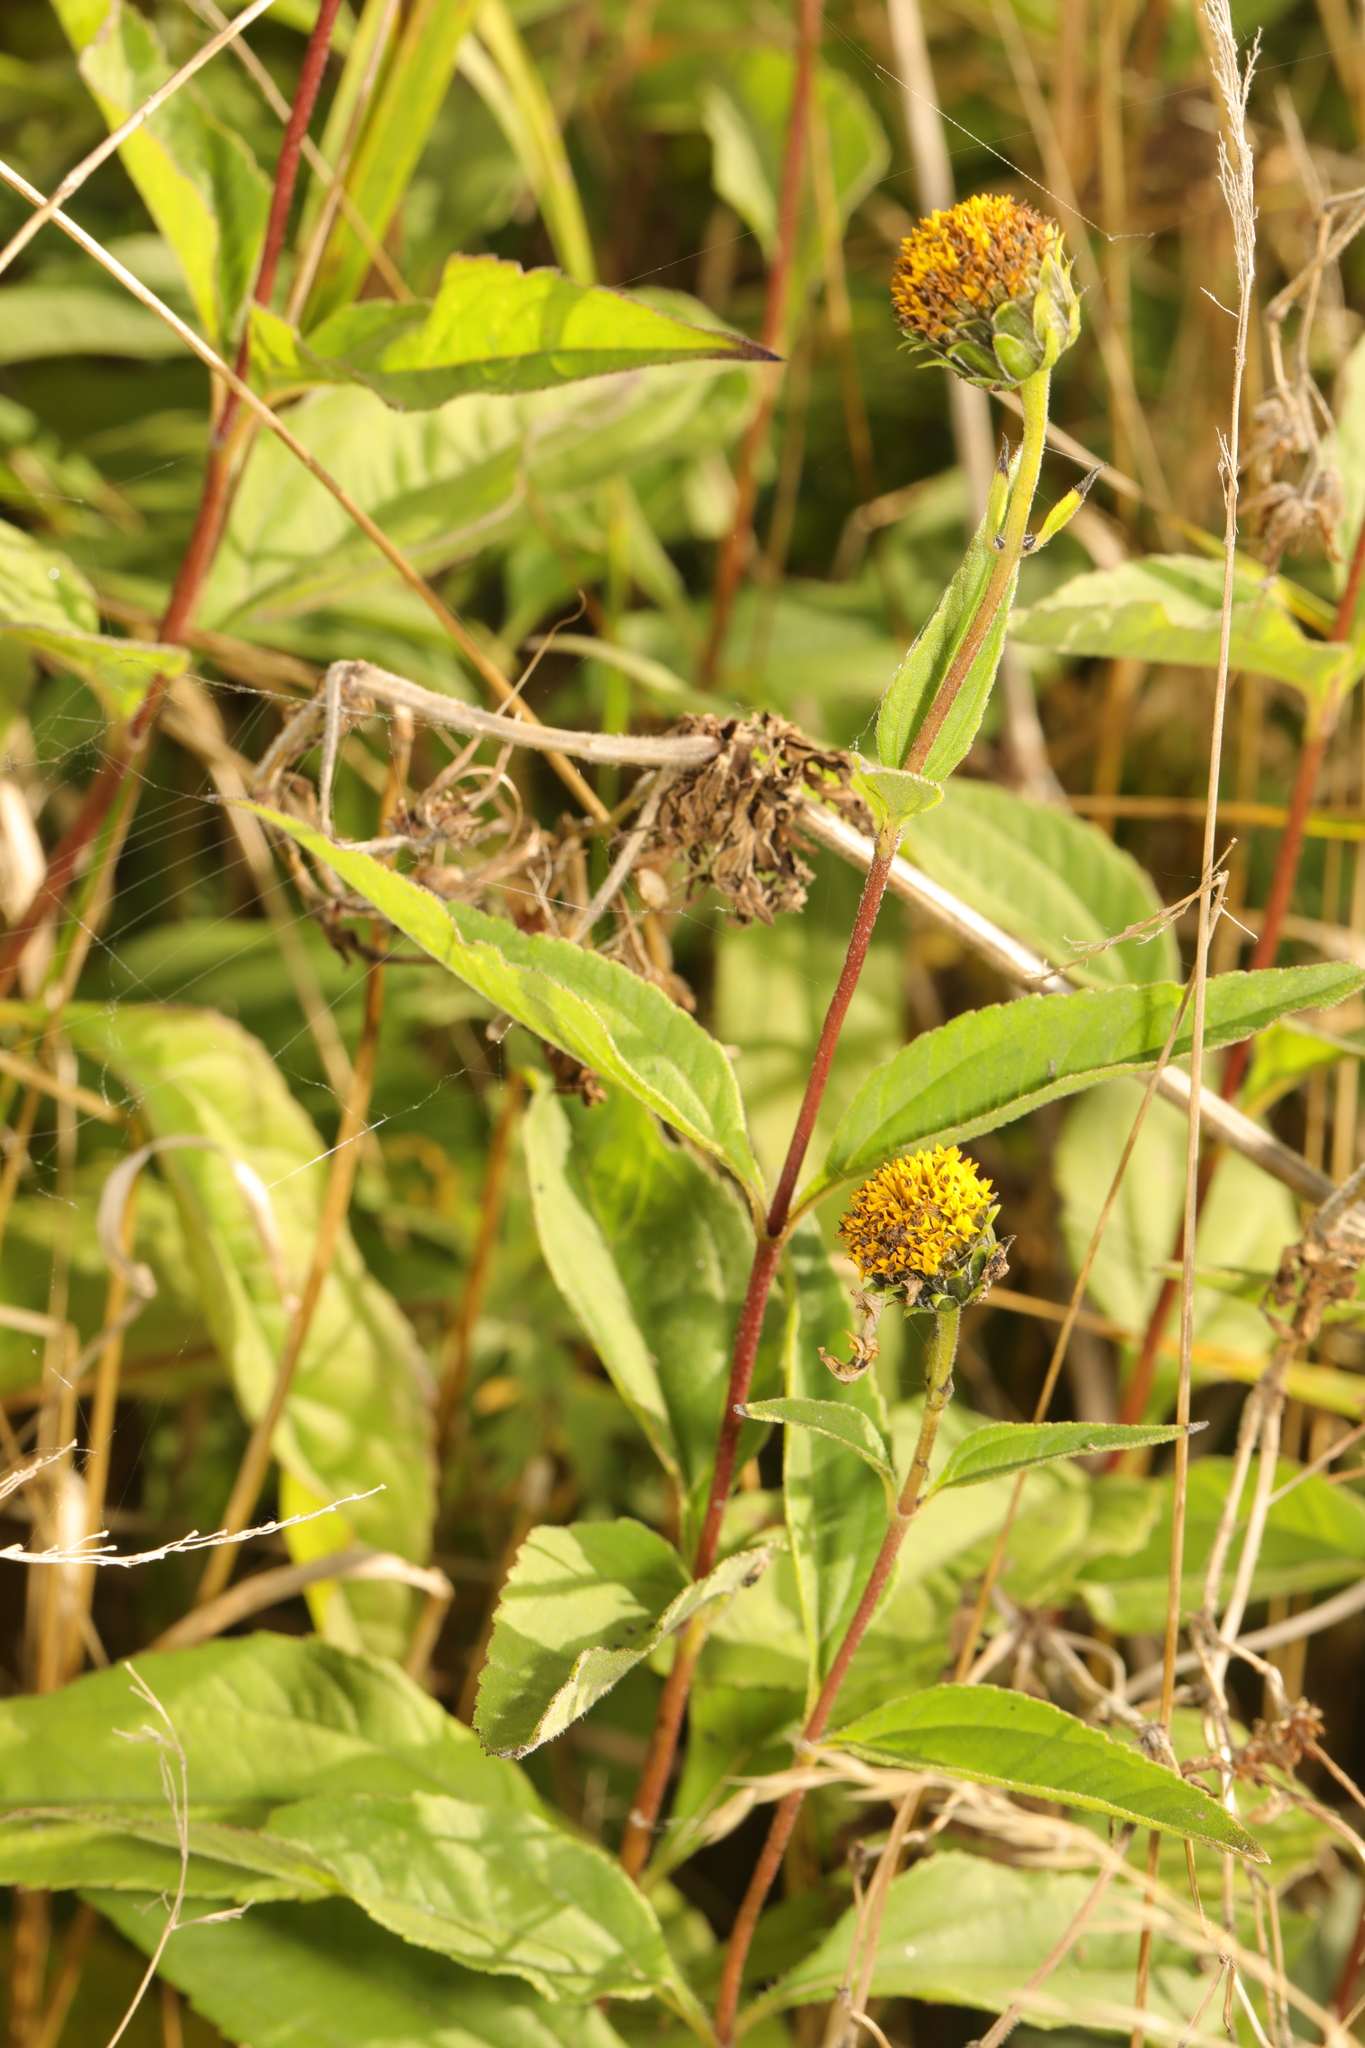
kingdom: Plantae
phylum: Tracheophyta
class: Magnoliopsida
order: Asterales
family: Asteraceae
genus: Helianthus
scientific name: Helianthus laetiflorus
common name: Perennial sunflower
